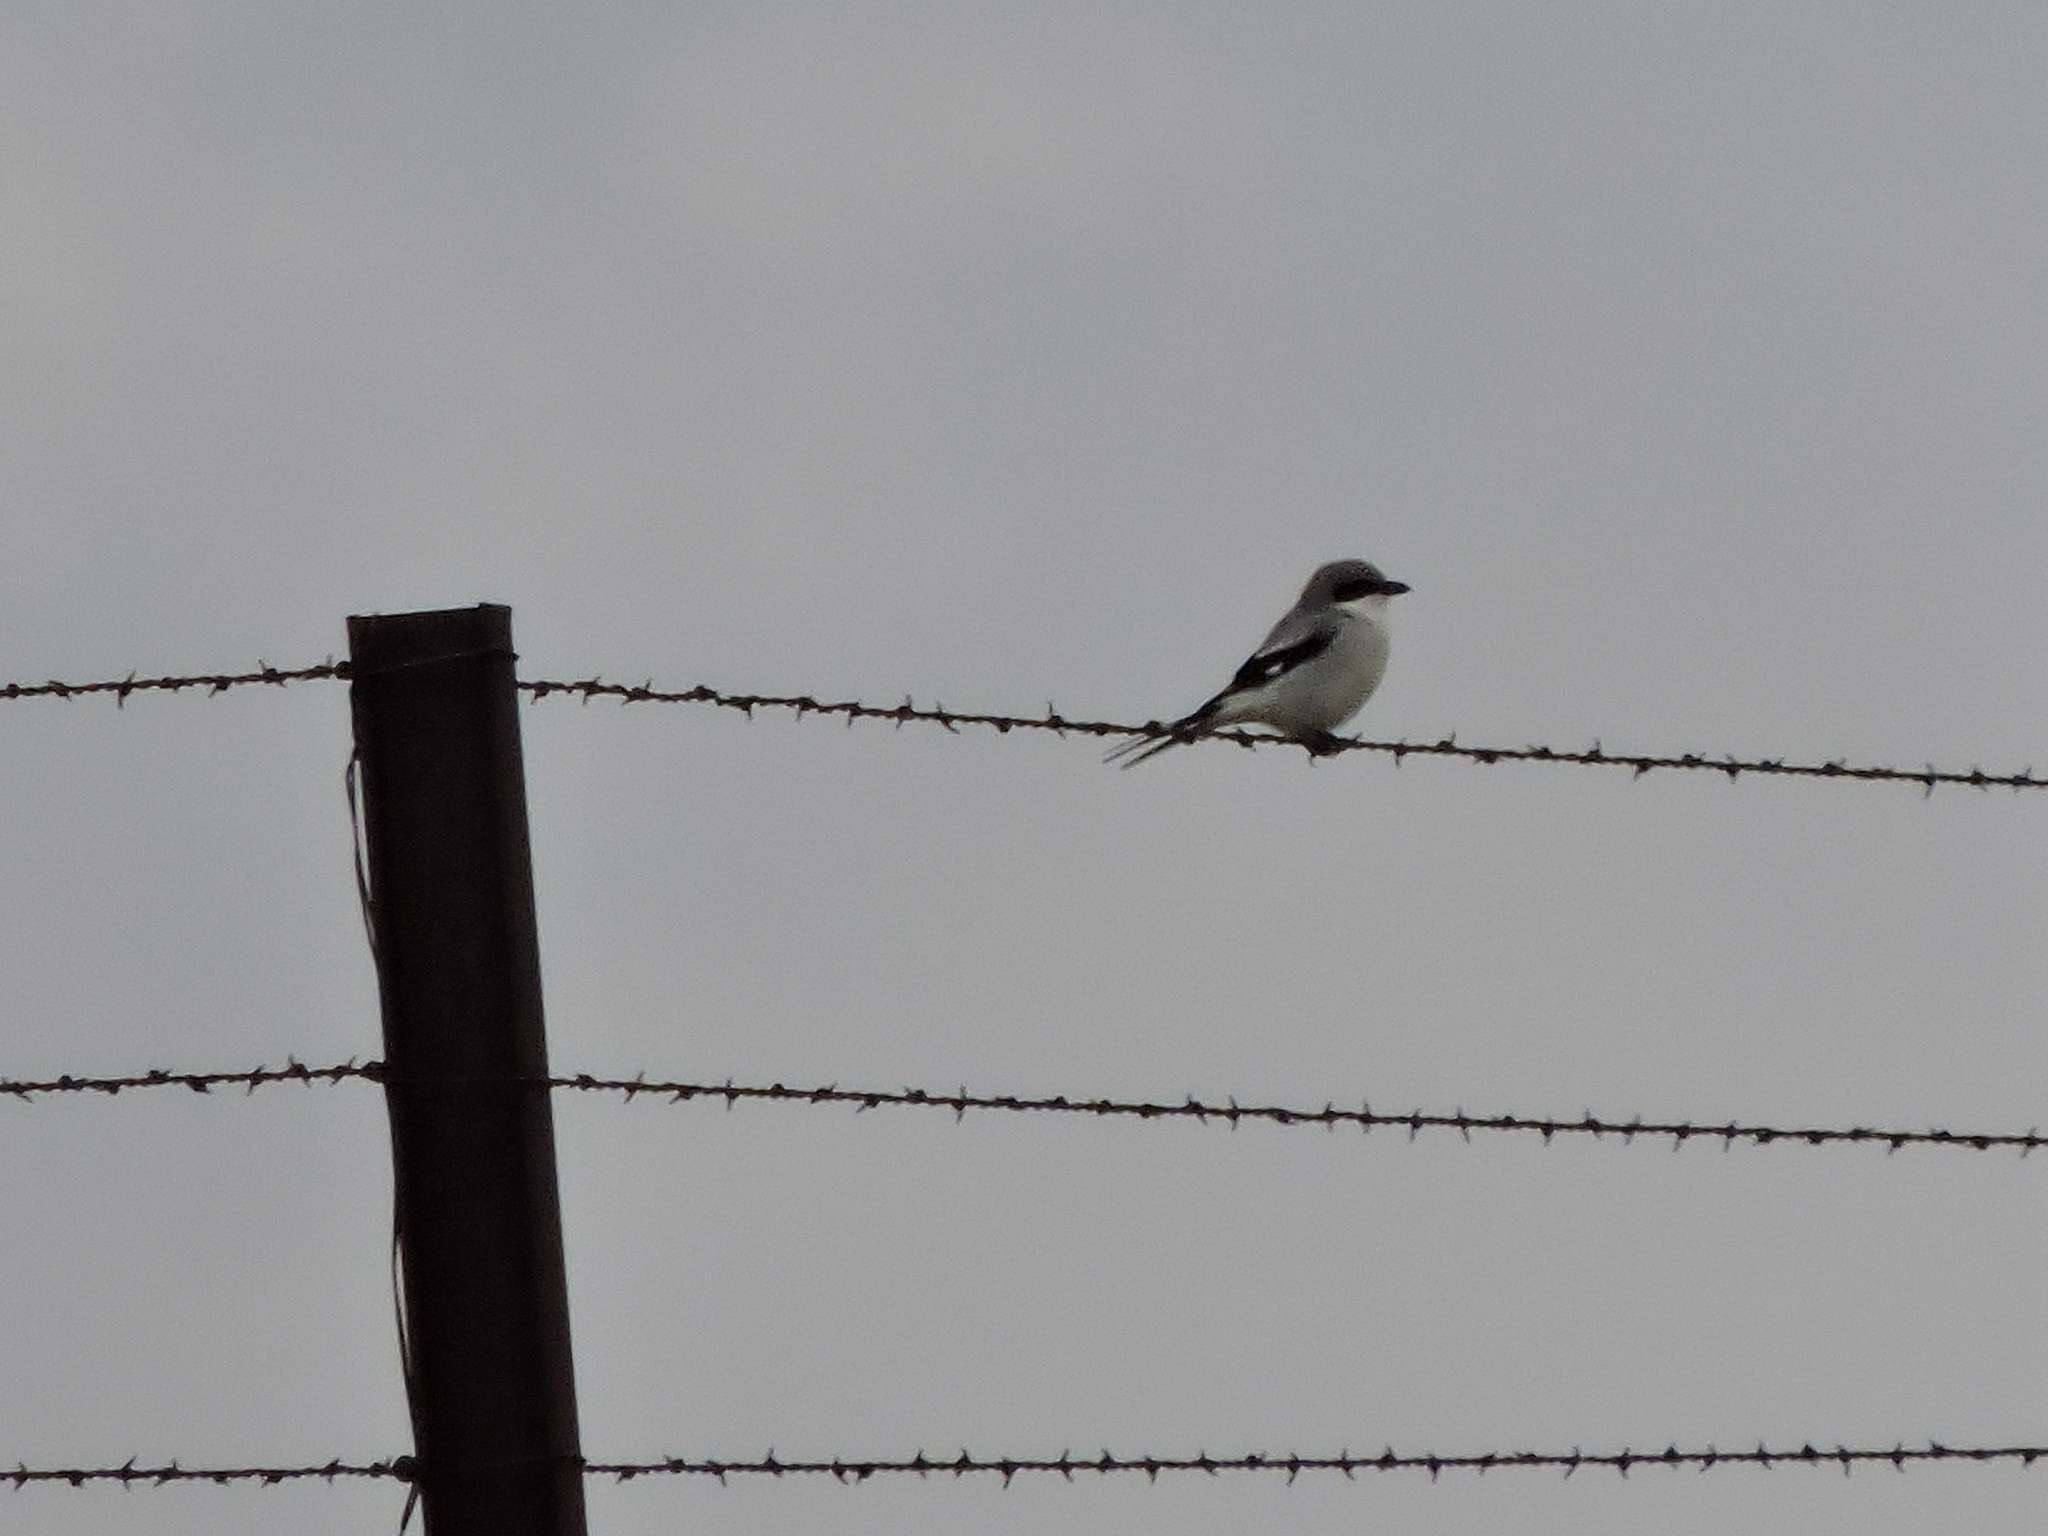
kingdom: Animalia
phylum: Chordata
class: Aves
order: Passeriformes
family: Laniidae
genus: Lanius
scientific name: Lanius ludovicianus
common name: Loggerhead shrike
